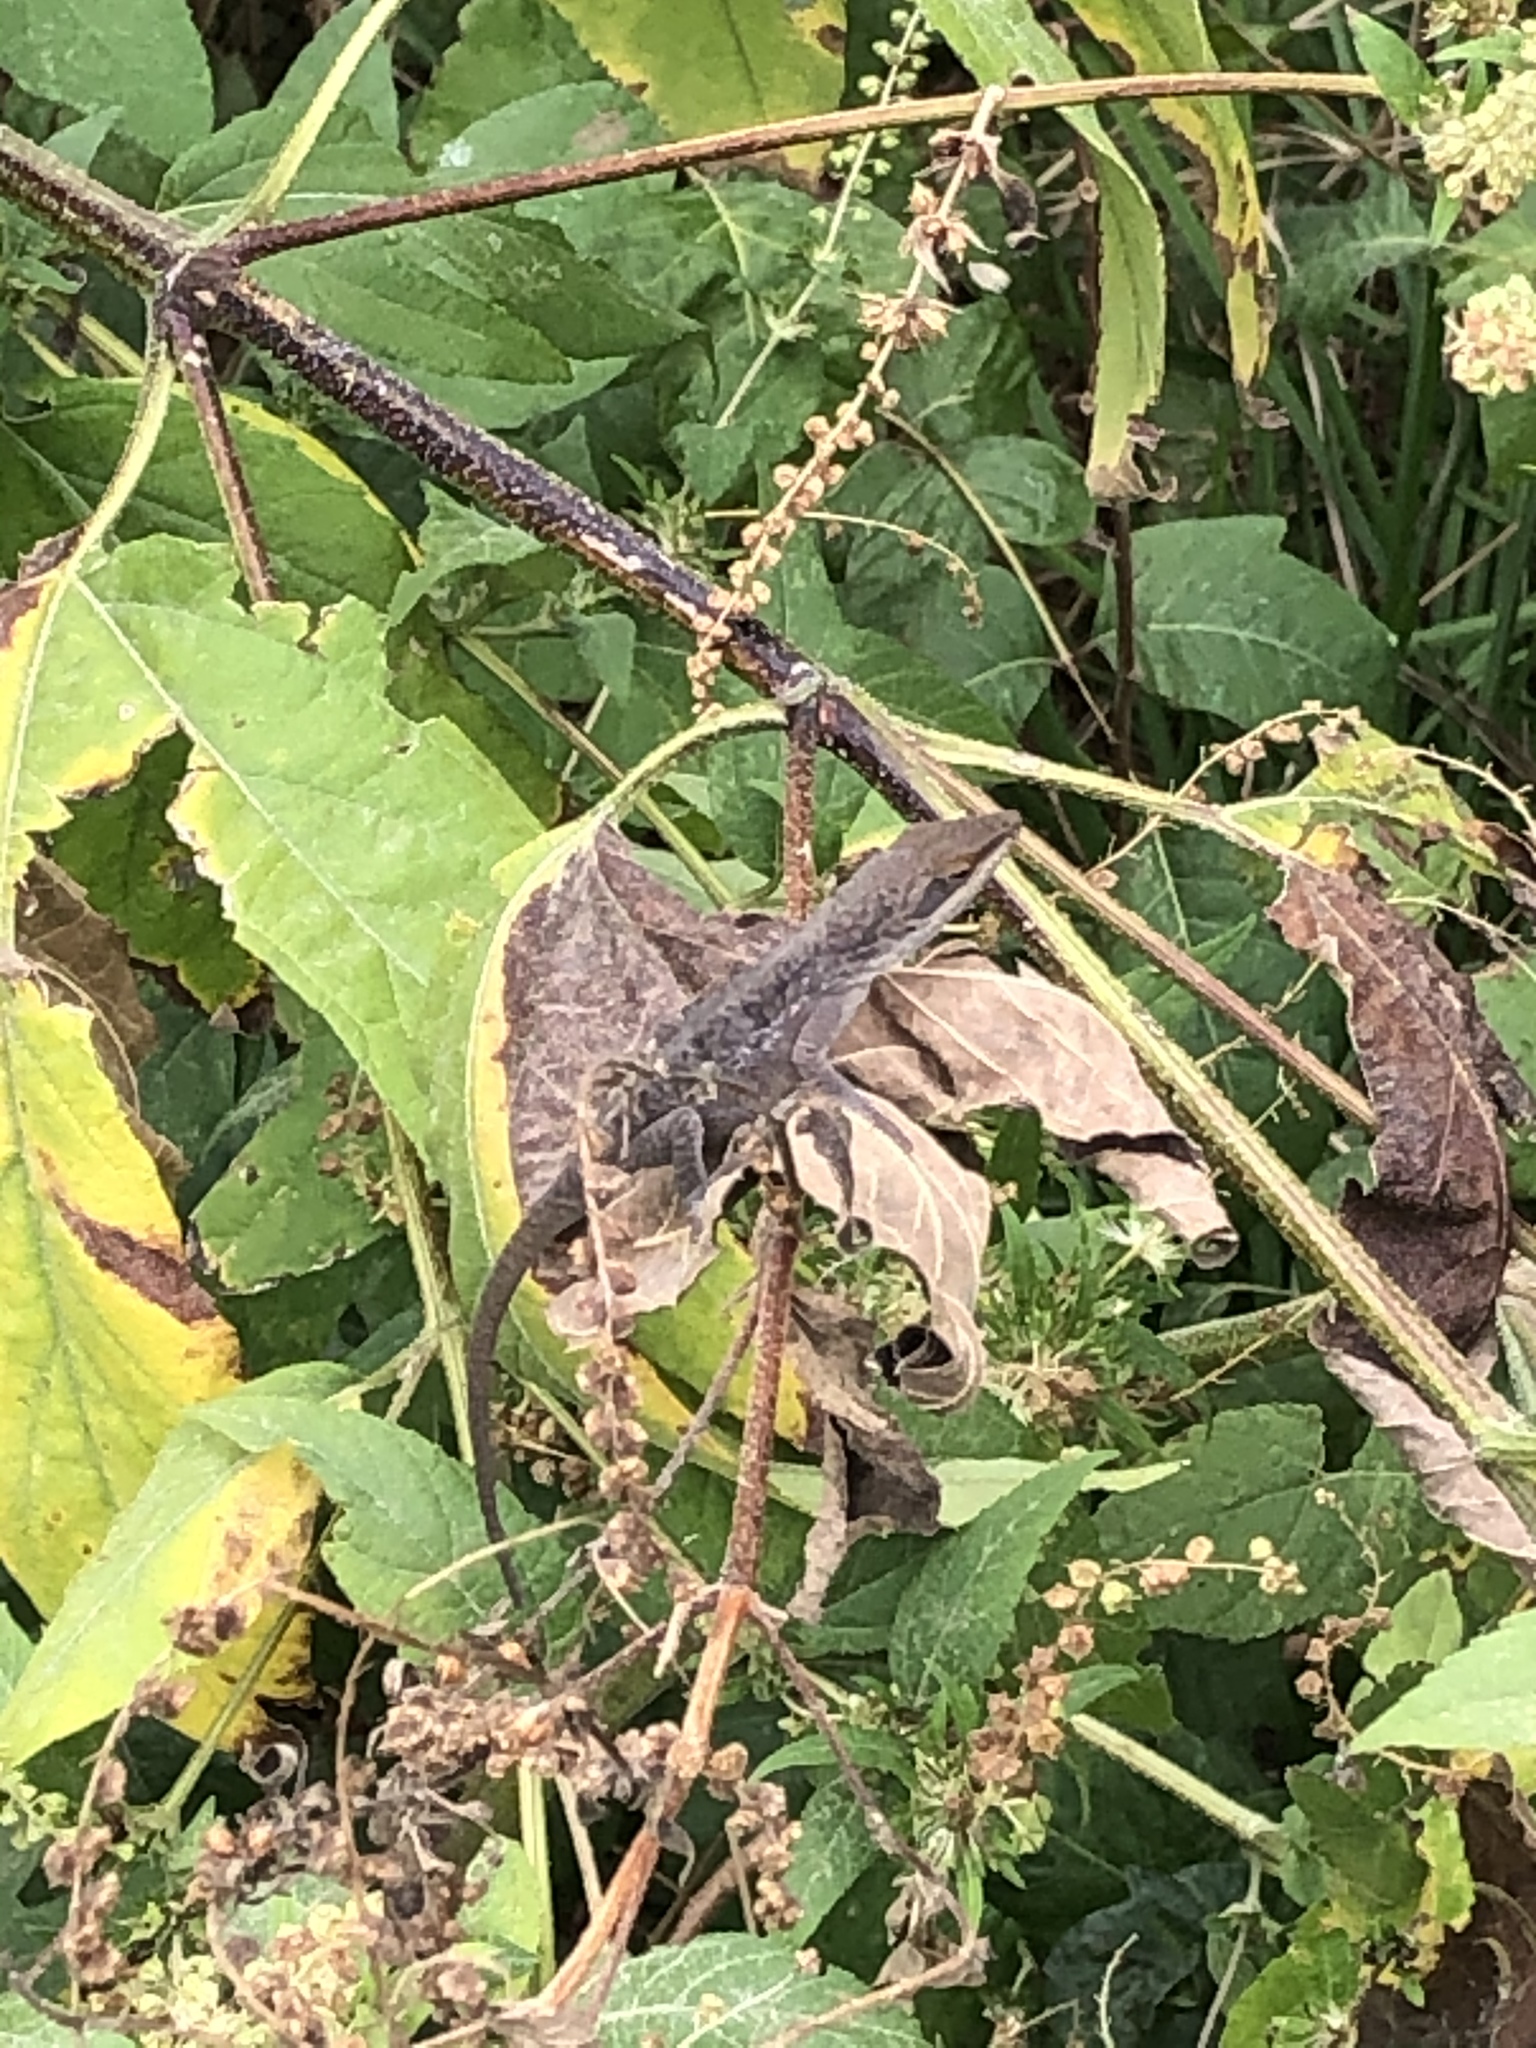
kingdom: Animalia
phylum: Chordata
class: Squamata
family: Dactyloidae
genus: Anolis
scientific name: Anolis carolinensis
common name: Green anole
